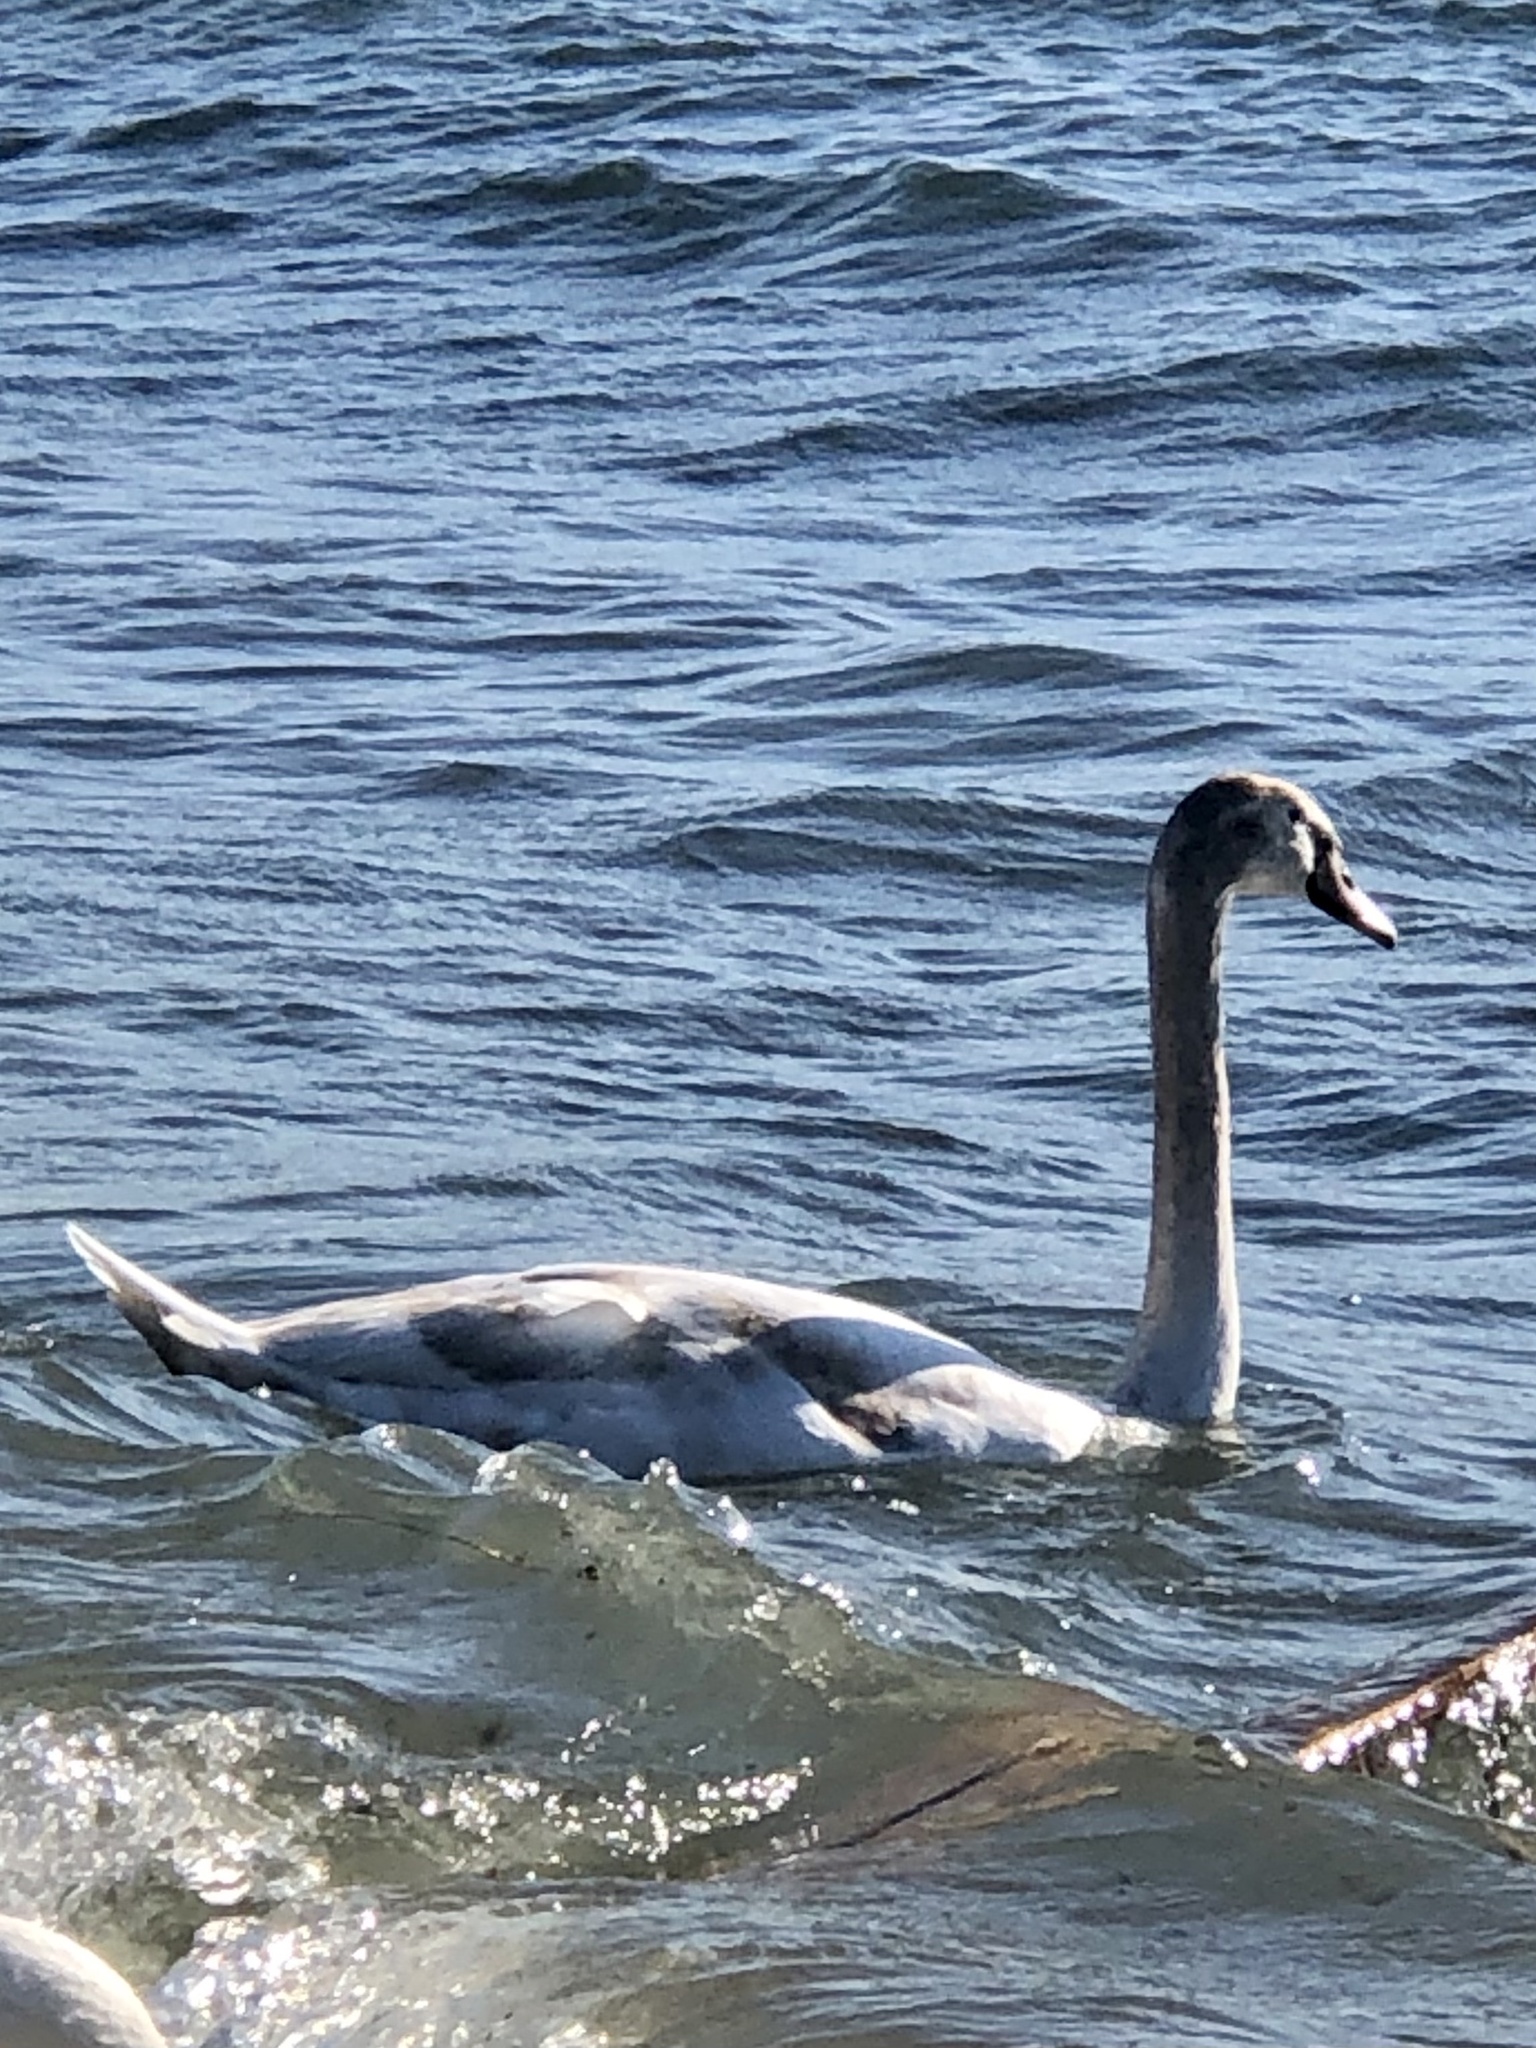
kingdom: Animalia
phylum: Chordata
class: Aves
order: Anseriformes
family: Anatidae
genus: Cygnus
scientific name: Cygnus olor
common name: Mute swan
